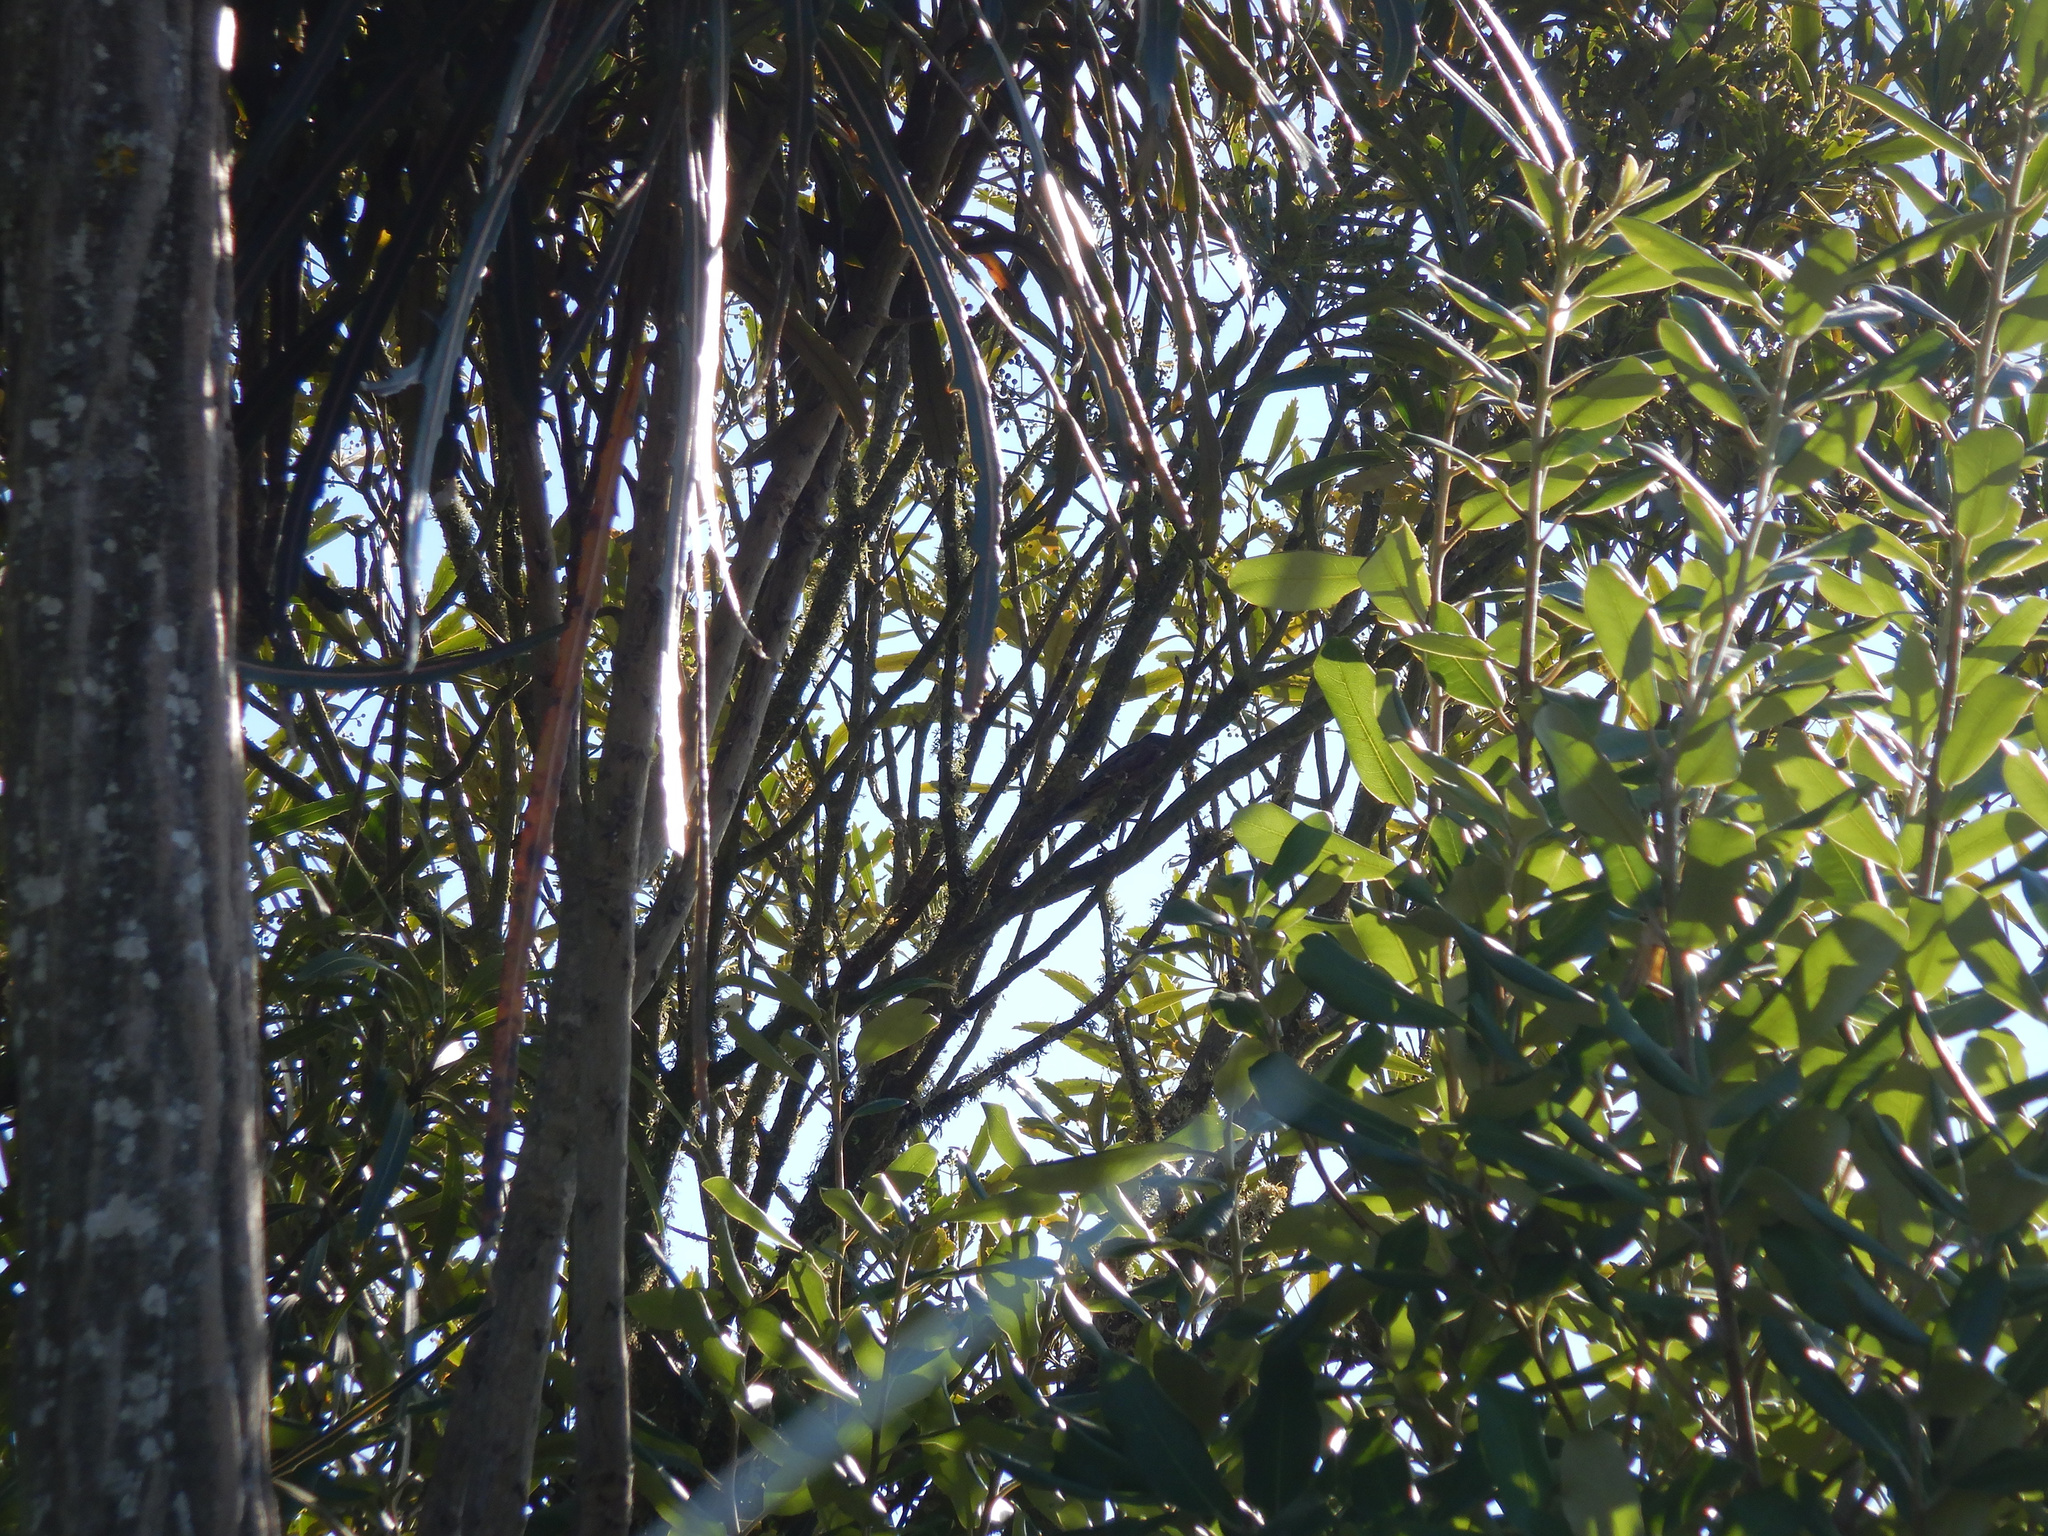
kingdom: Animalia
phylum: Chordata
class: Aves
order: Passeriformes
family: Passeridae
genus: Passer
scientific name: Passer domesticus
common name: House sparrow
